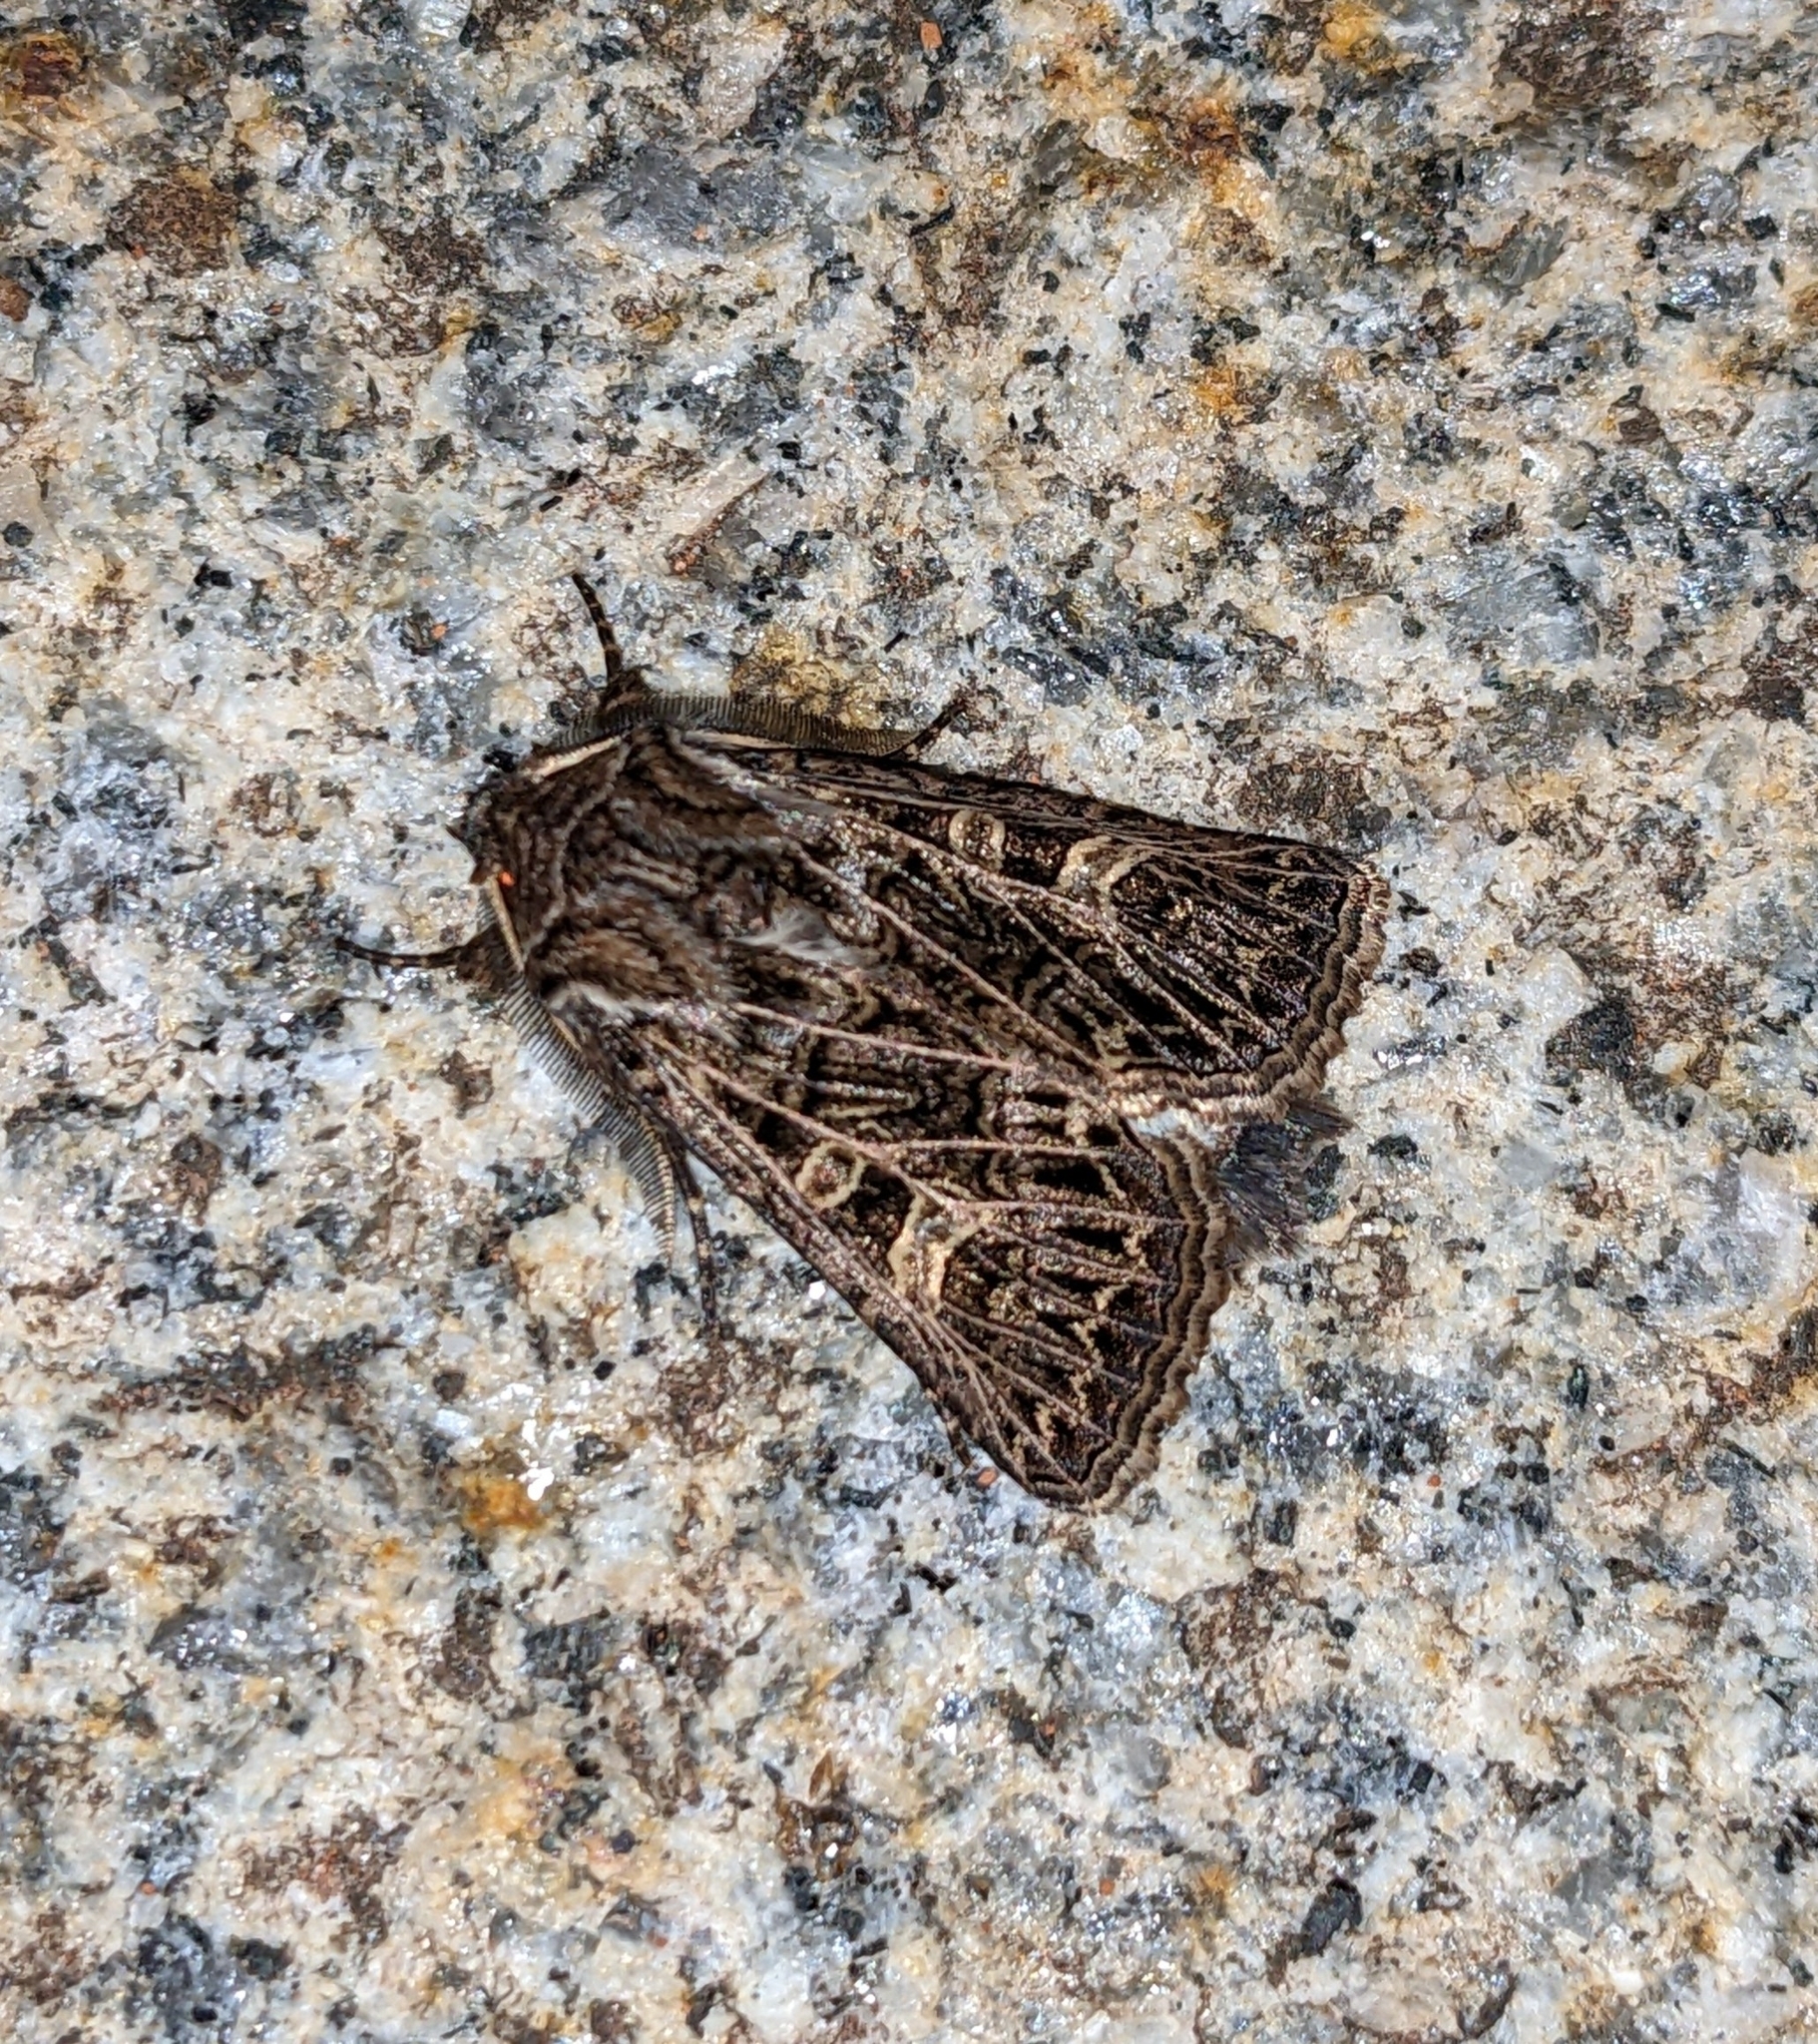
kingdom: Animalia
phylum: Arthropoda
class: Insecta
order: Lepidoptera
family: Noctuidae
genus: Tholera
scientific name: Tholera decimalis
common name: Feathered gothic
